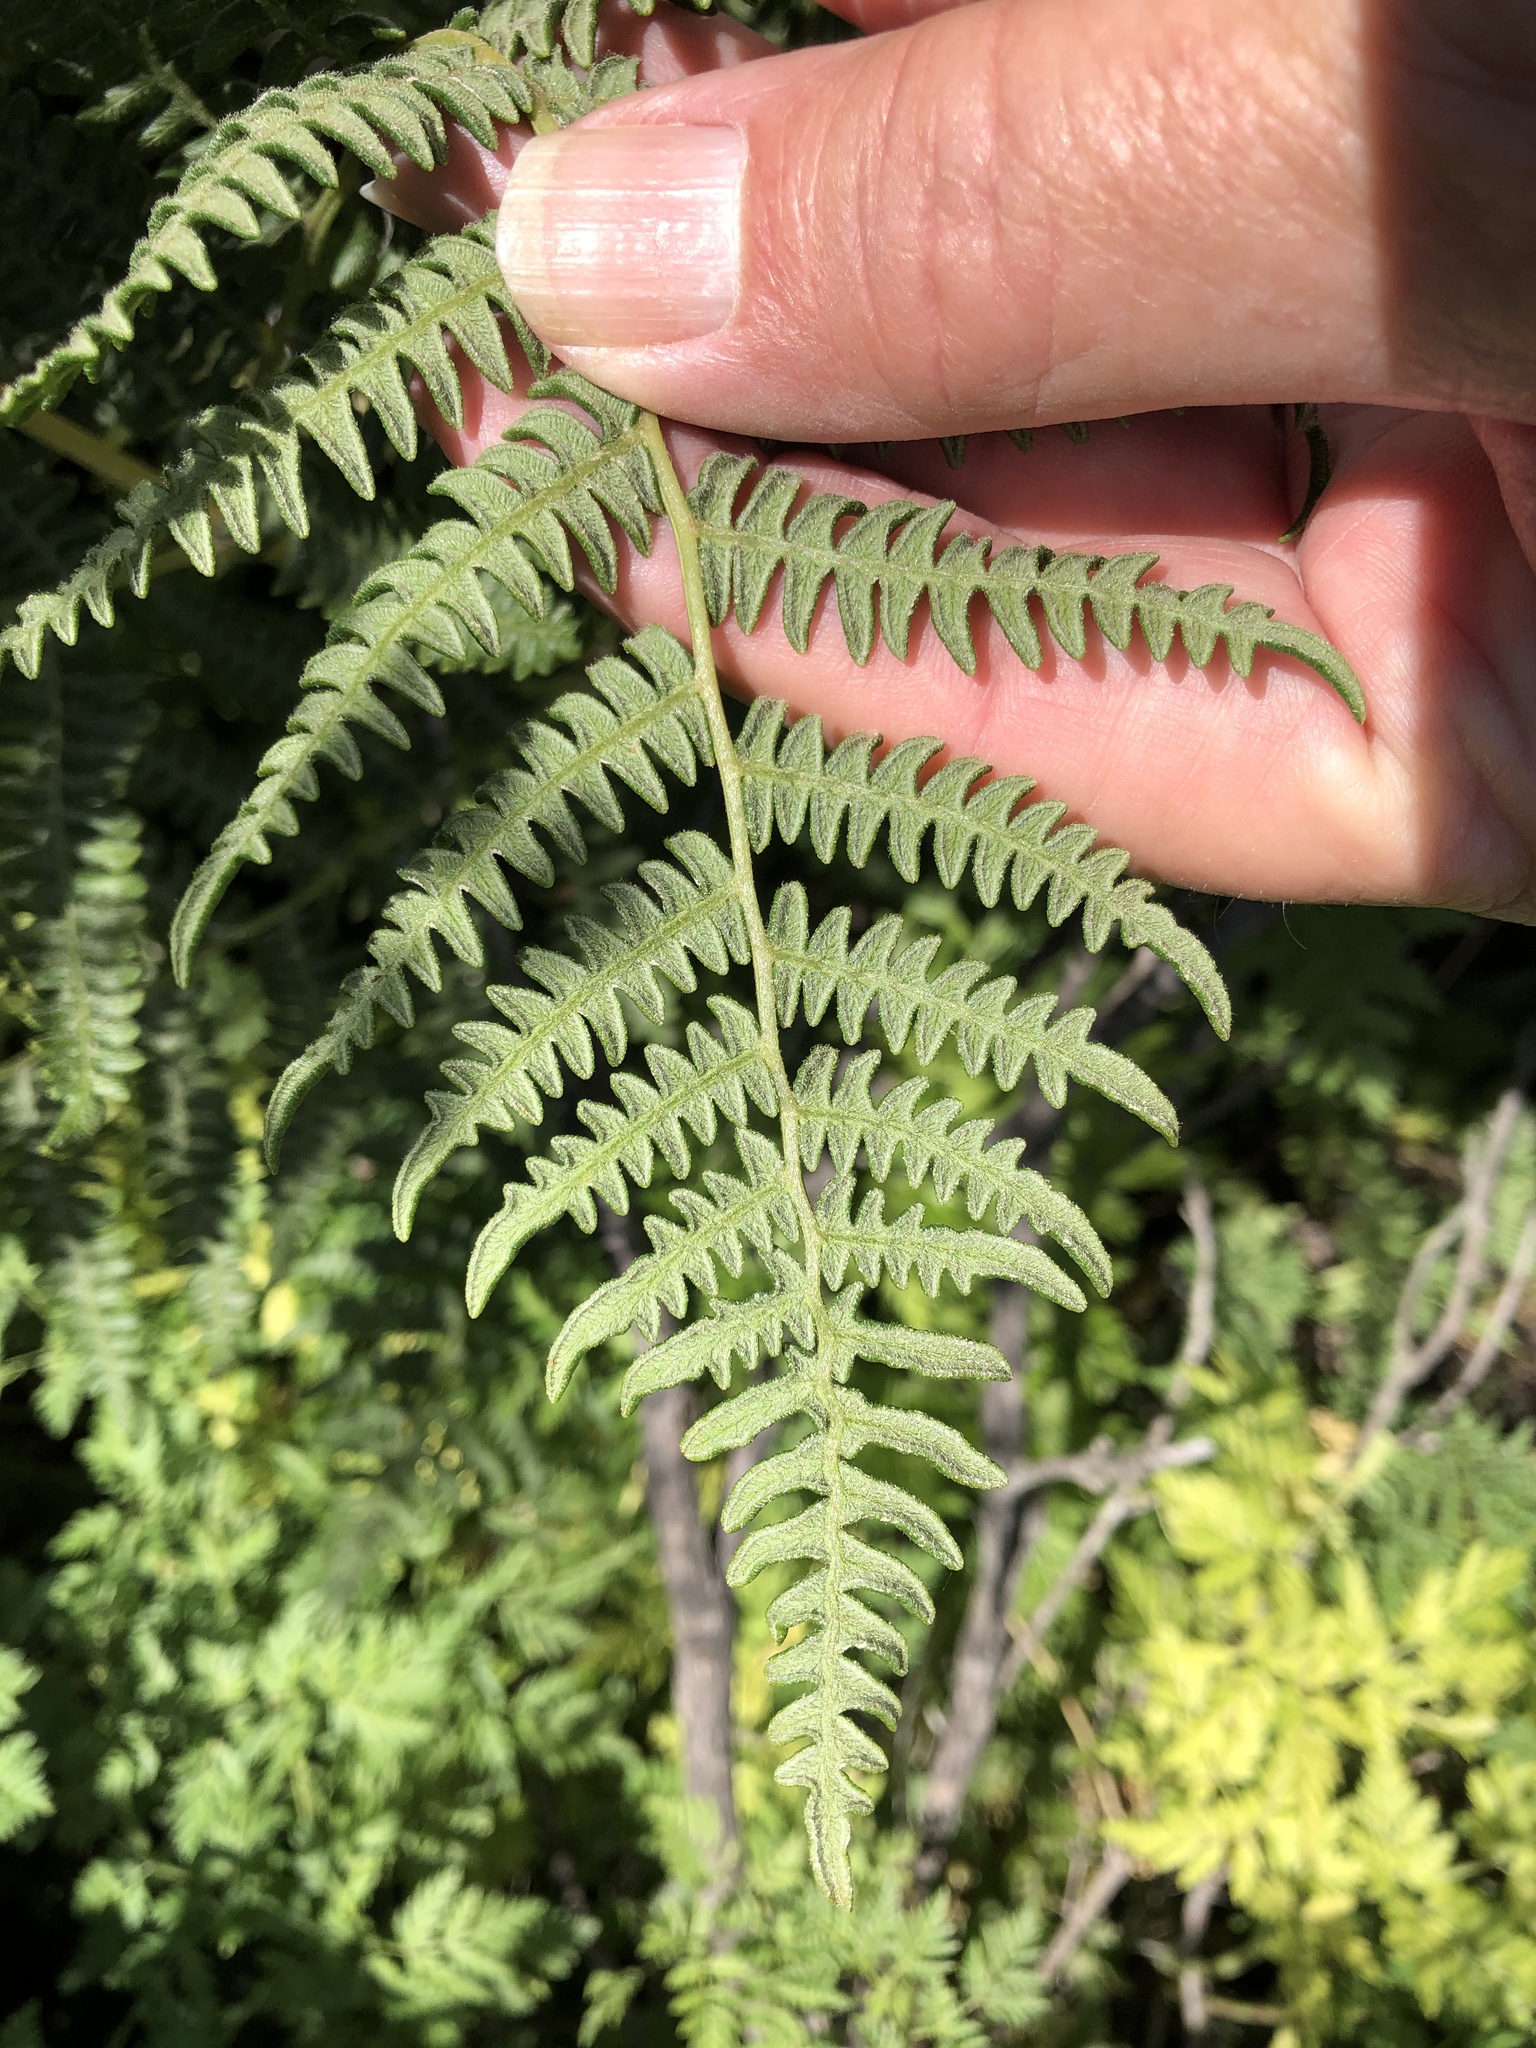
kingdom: Plantae
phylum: Tracheophyta
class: Polypodiopsida
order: Polypodiales
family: Dennstaedtiaceae
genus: Pteridium
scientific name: Pteridium aquilinum
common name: Bracken
